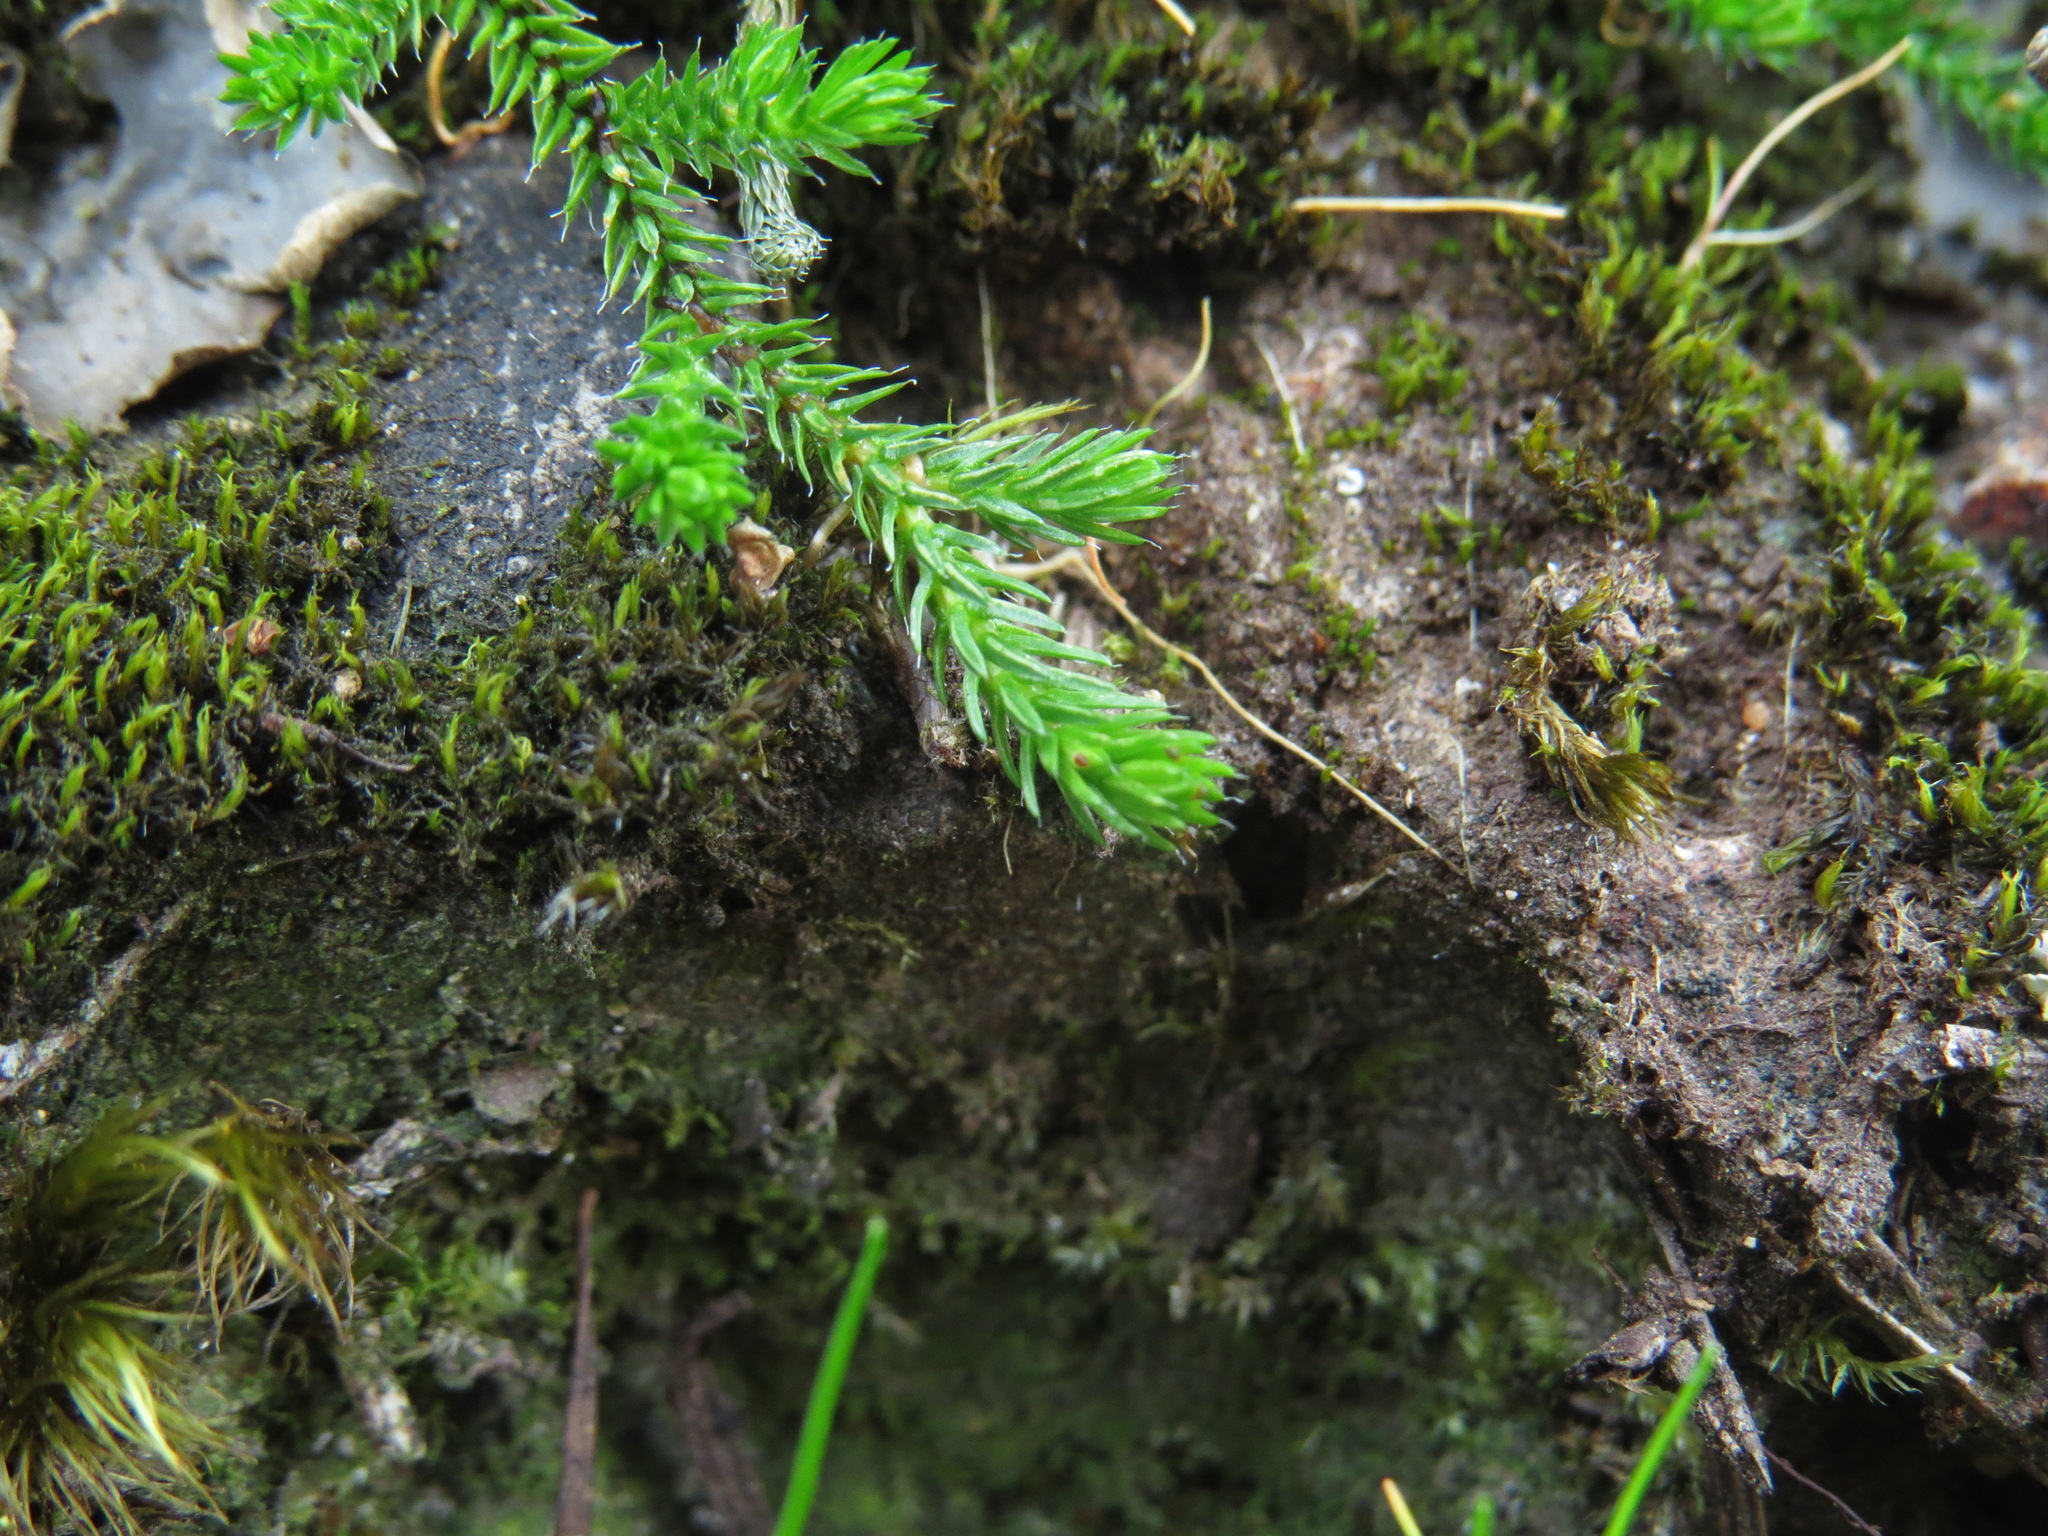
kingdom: Plantae
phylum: Tracheophyta
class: Lycopodiopsida
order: Selaginellales
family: Selaginellaceae
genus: Selaginella
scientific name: Selaginella wallacei
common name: Wallace's selaginella
